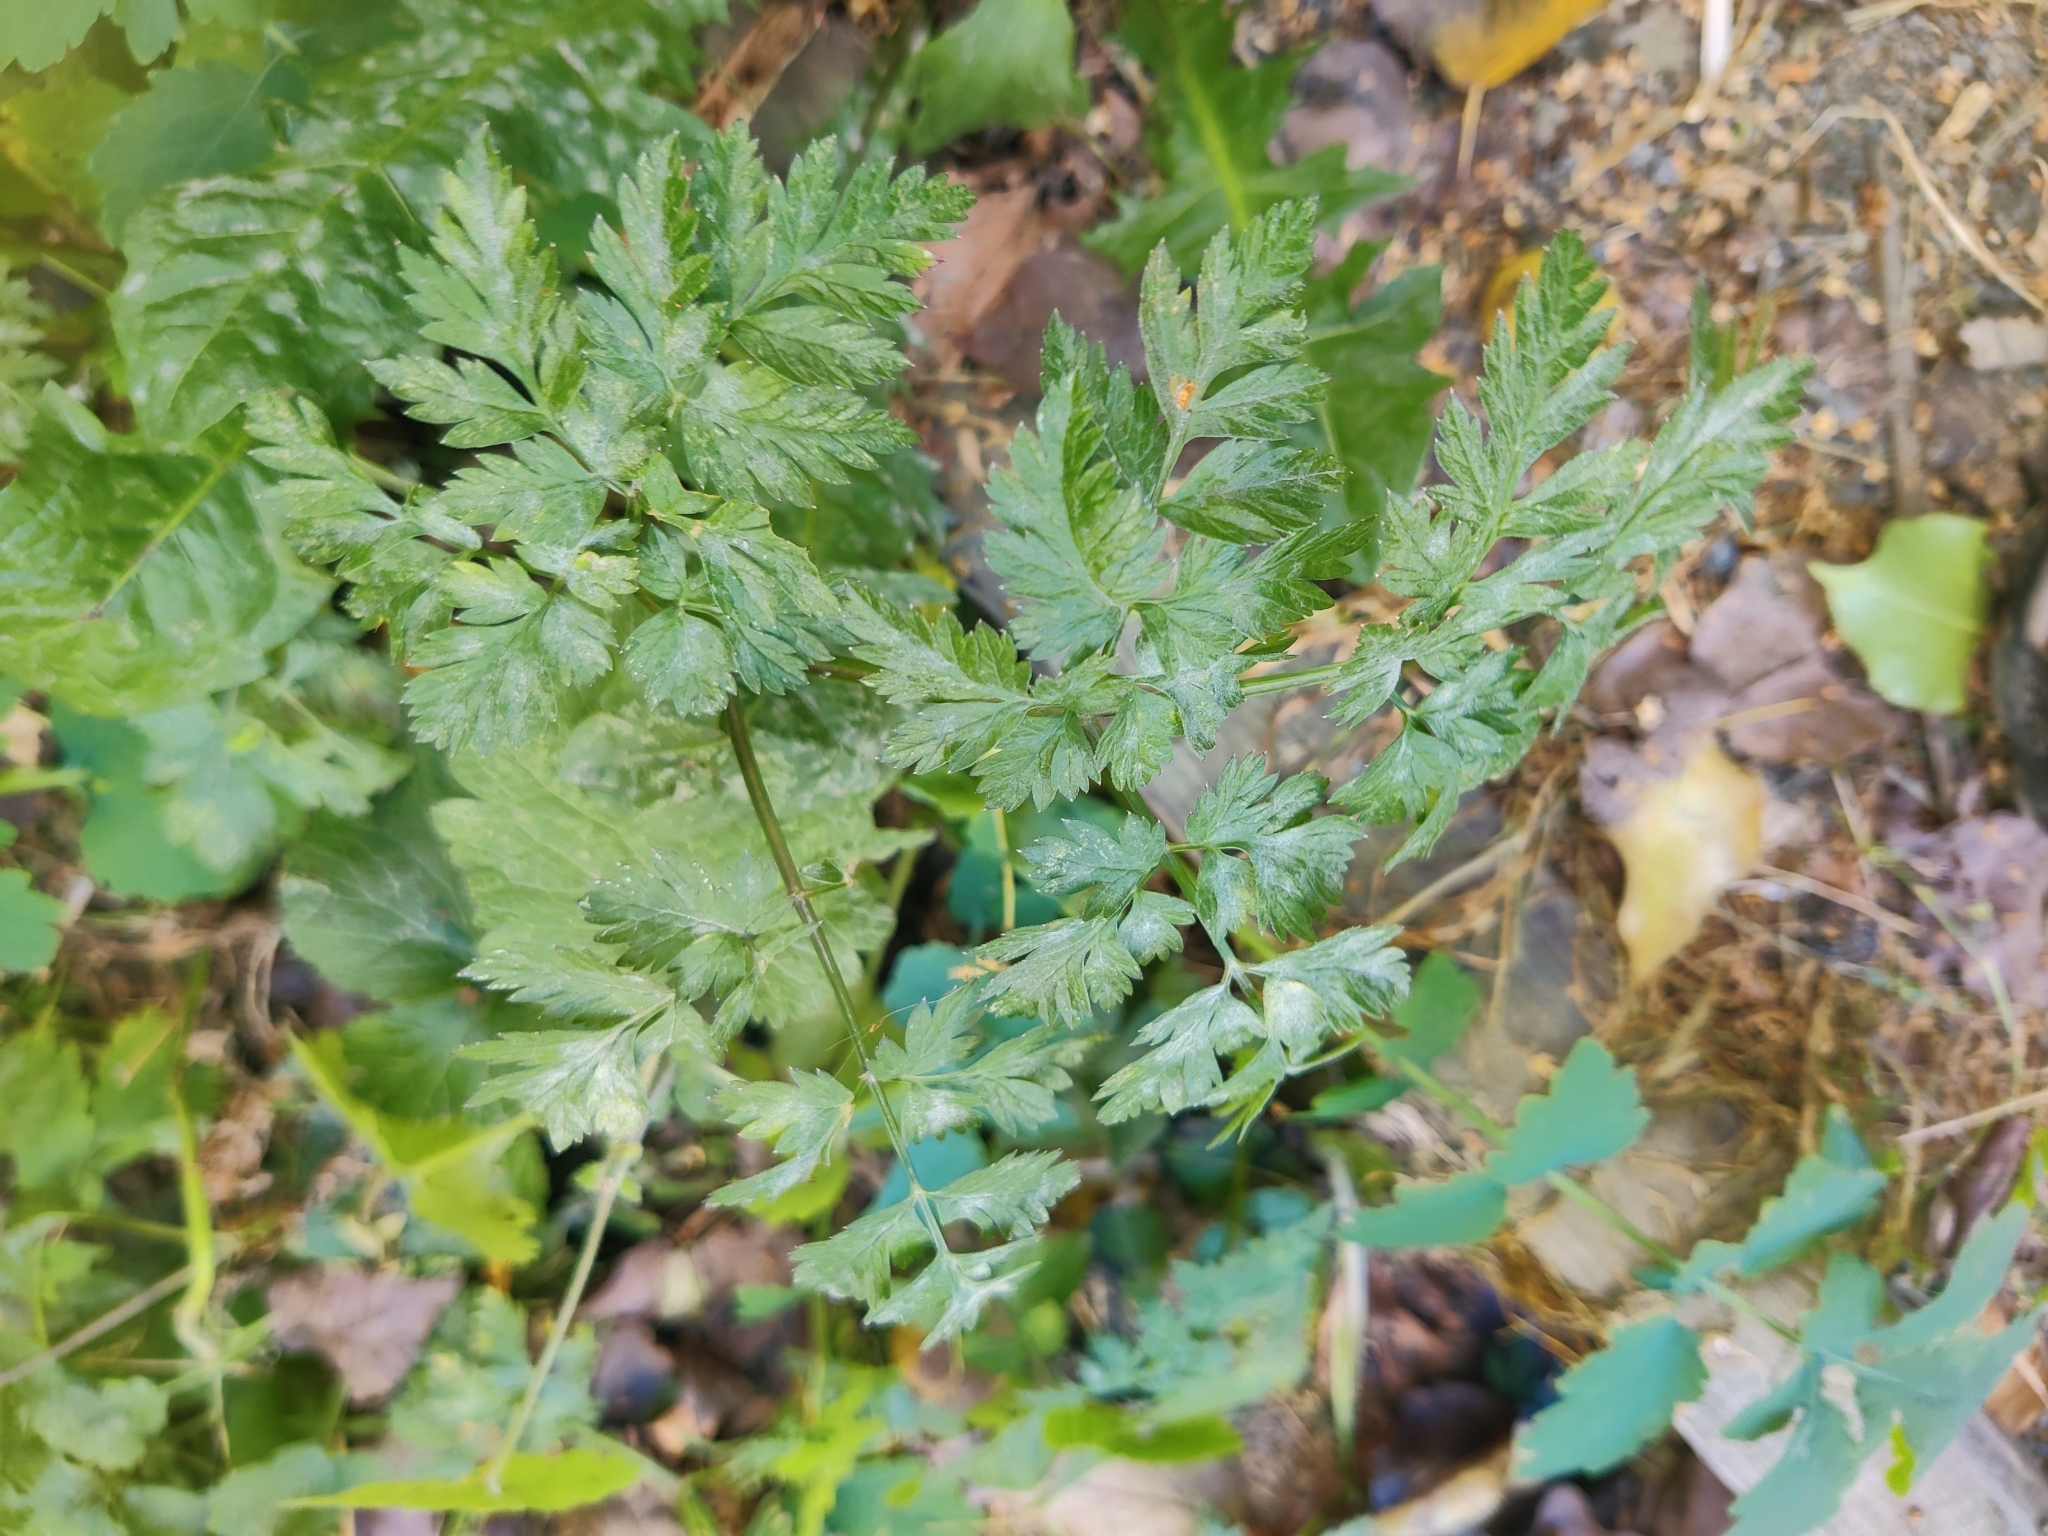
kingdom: Plantae
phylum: Tracheophyta
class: Magnoliopsida
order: Apiales
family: Apiaceae
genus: Anthriscus
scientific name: Anthriscus sylvestris
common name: Cow parsley
